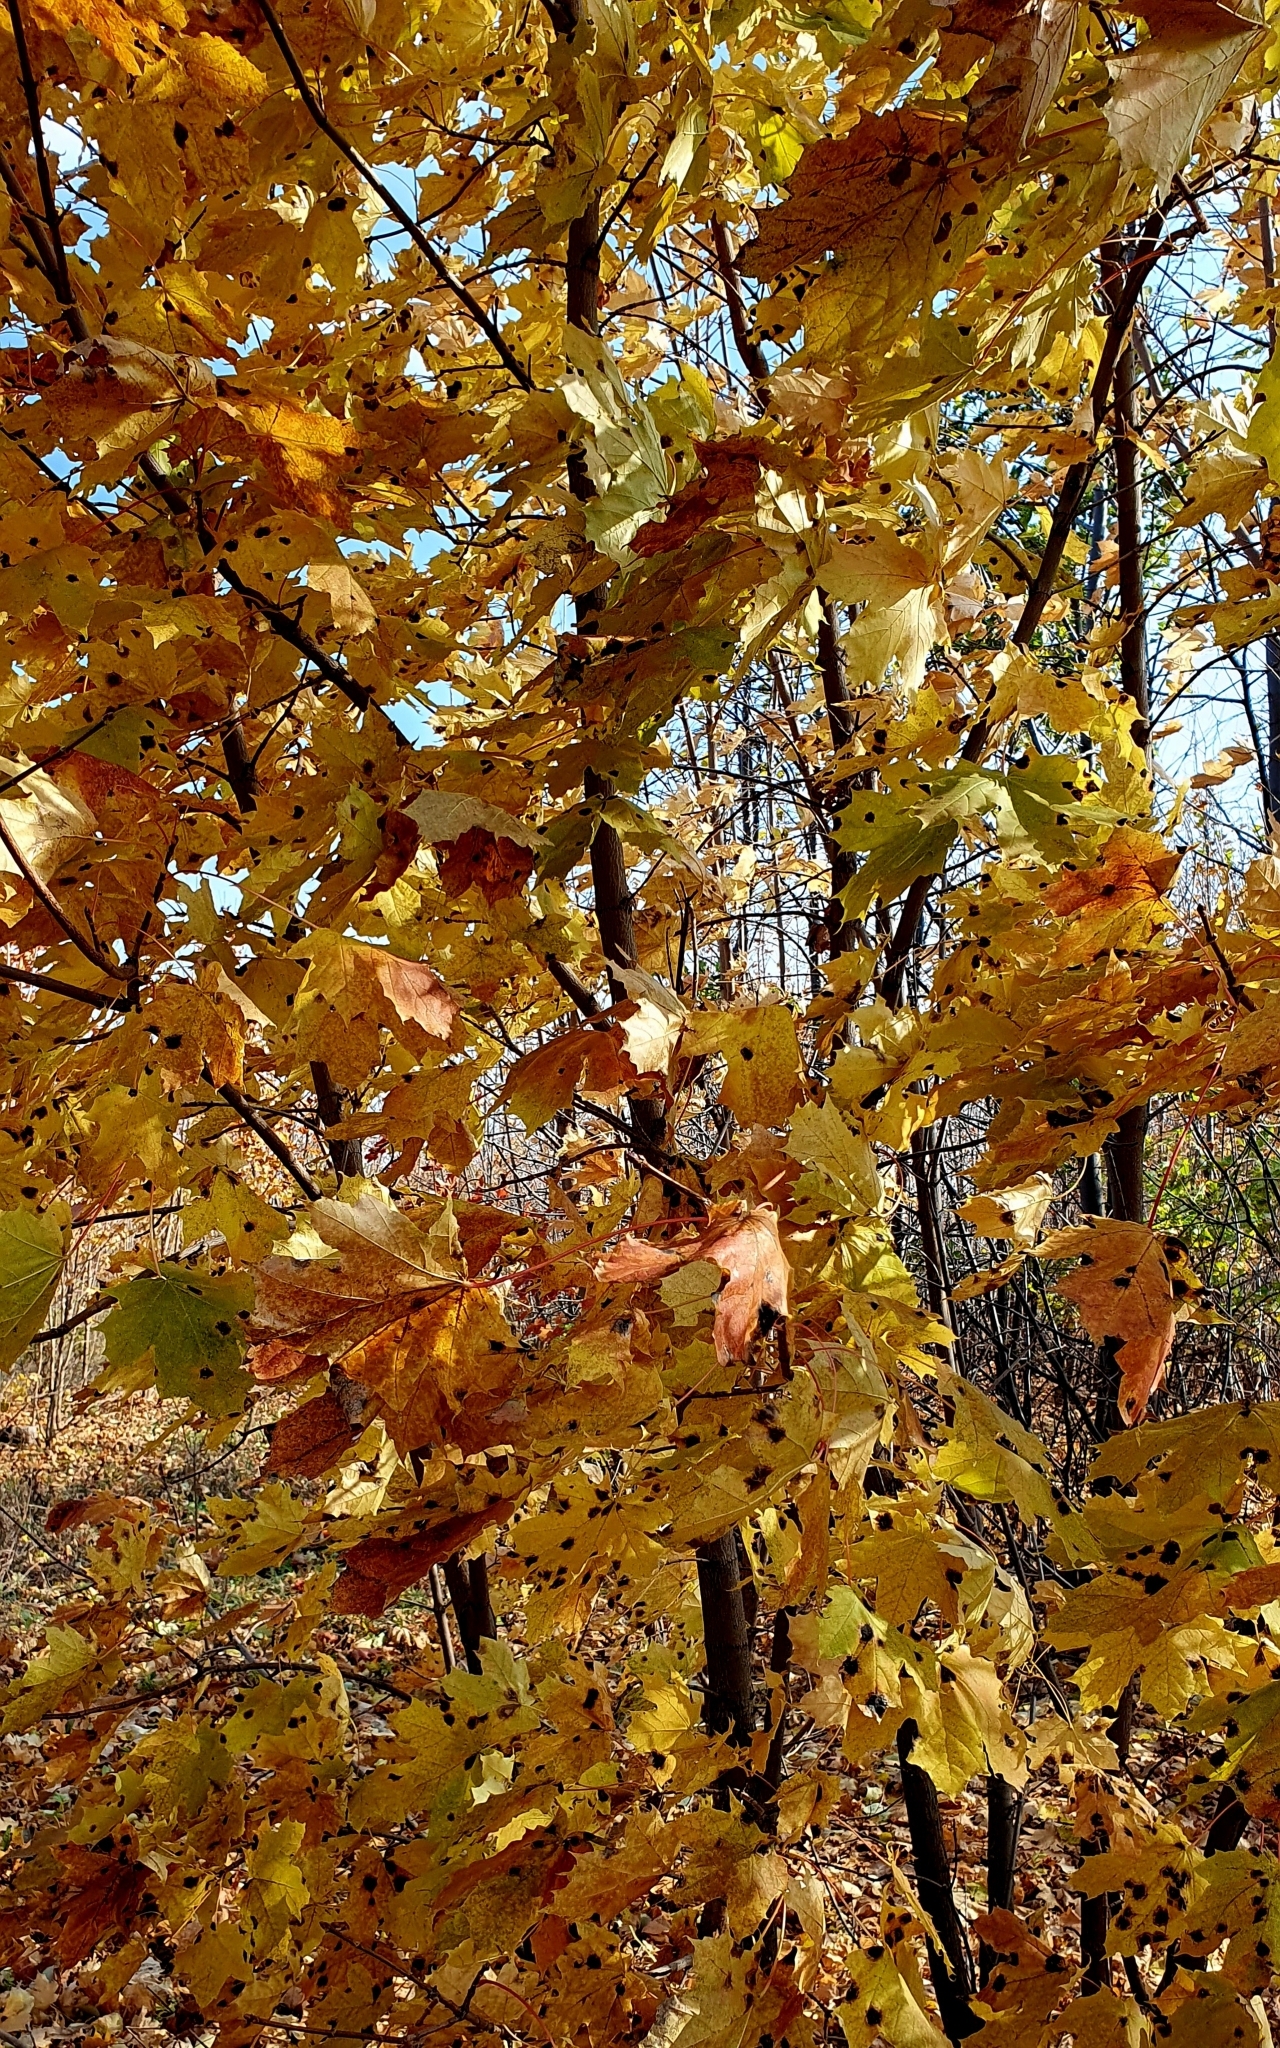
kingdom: Plantae
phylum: Tracheophyta
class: Magnoliopsida
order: Sapindales
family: Sapindaceae
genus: Acer
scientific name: Acer platanoides
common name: Norway maple
